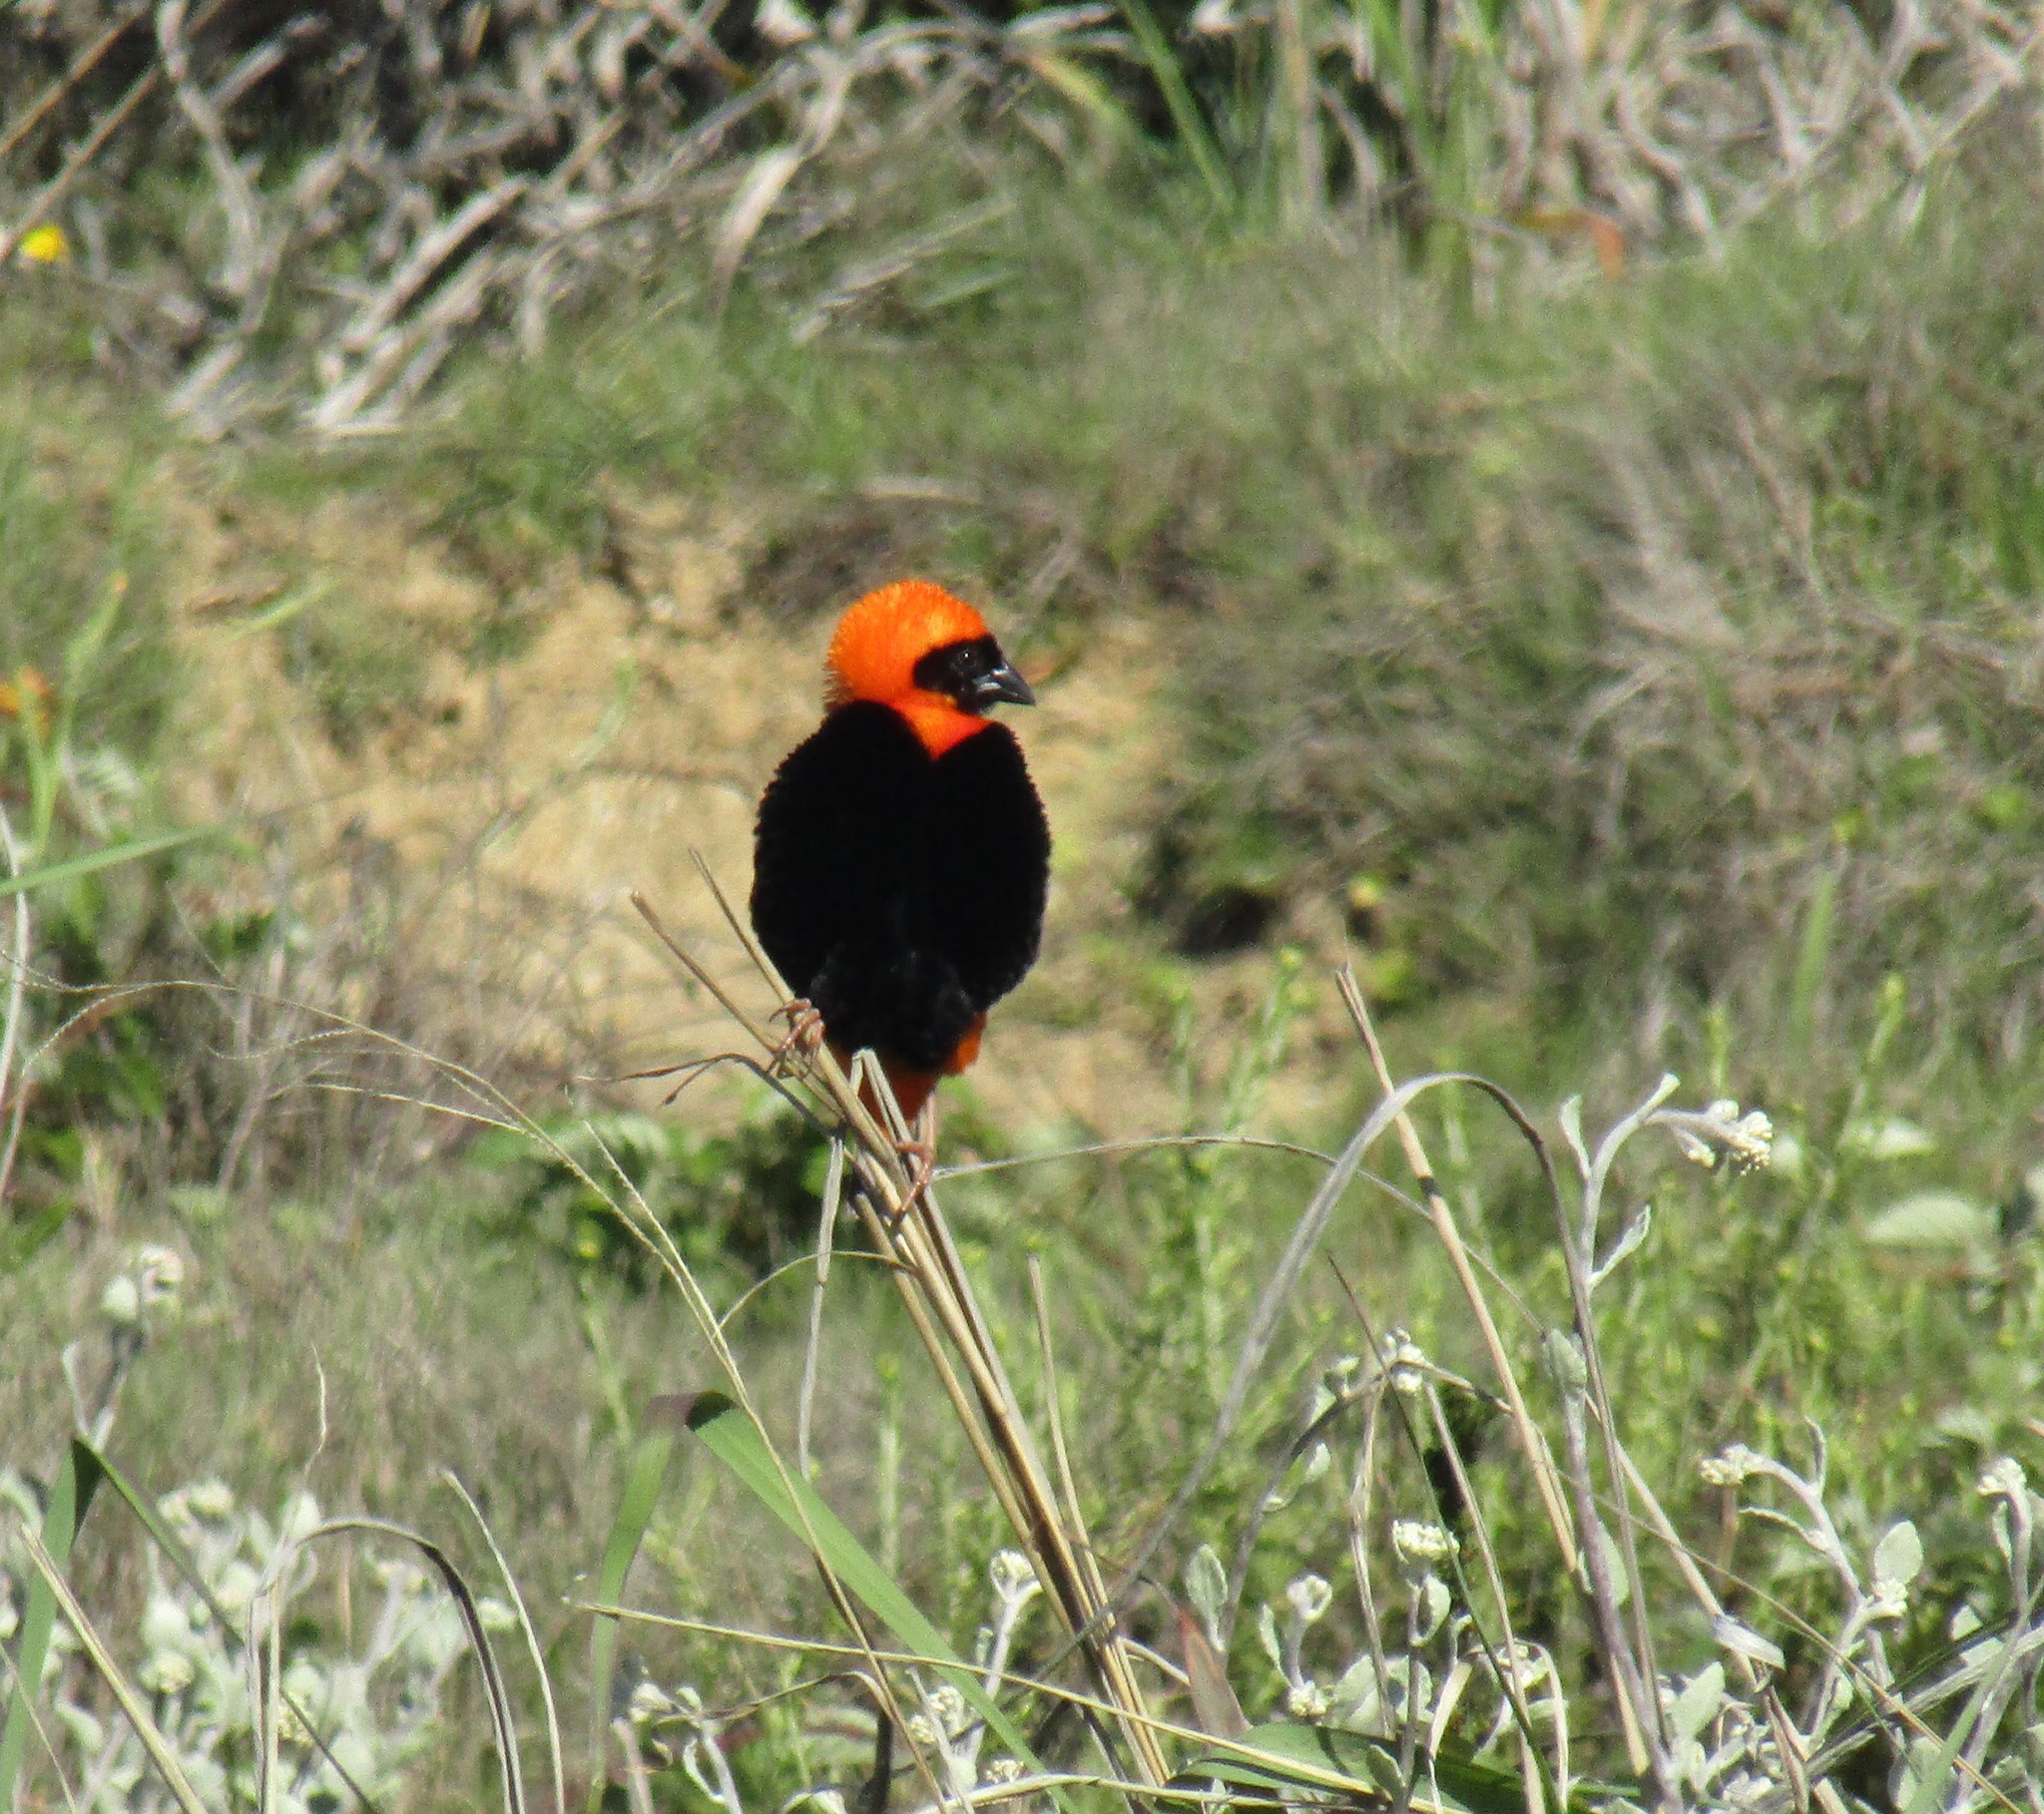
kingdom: Animalia
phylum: Chordata
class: Aves
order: Passeriformes
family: Ploceidae
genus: Euplectes
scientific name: Euplectes orix
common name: Southern red bishop
